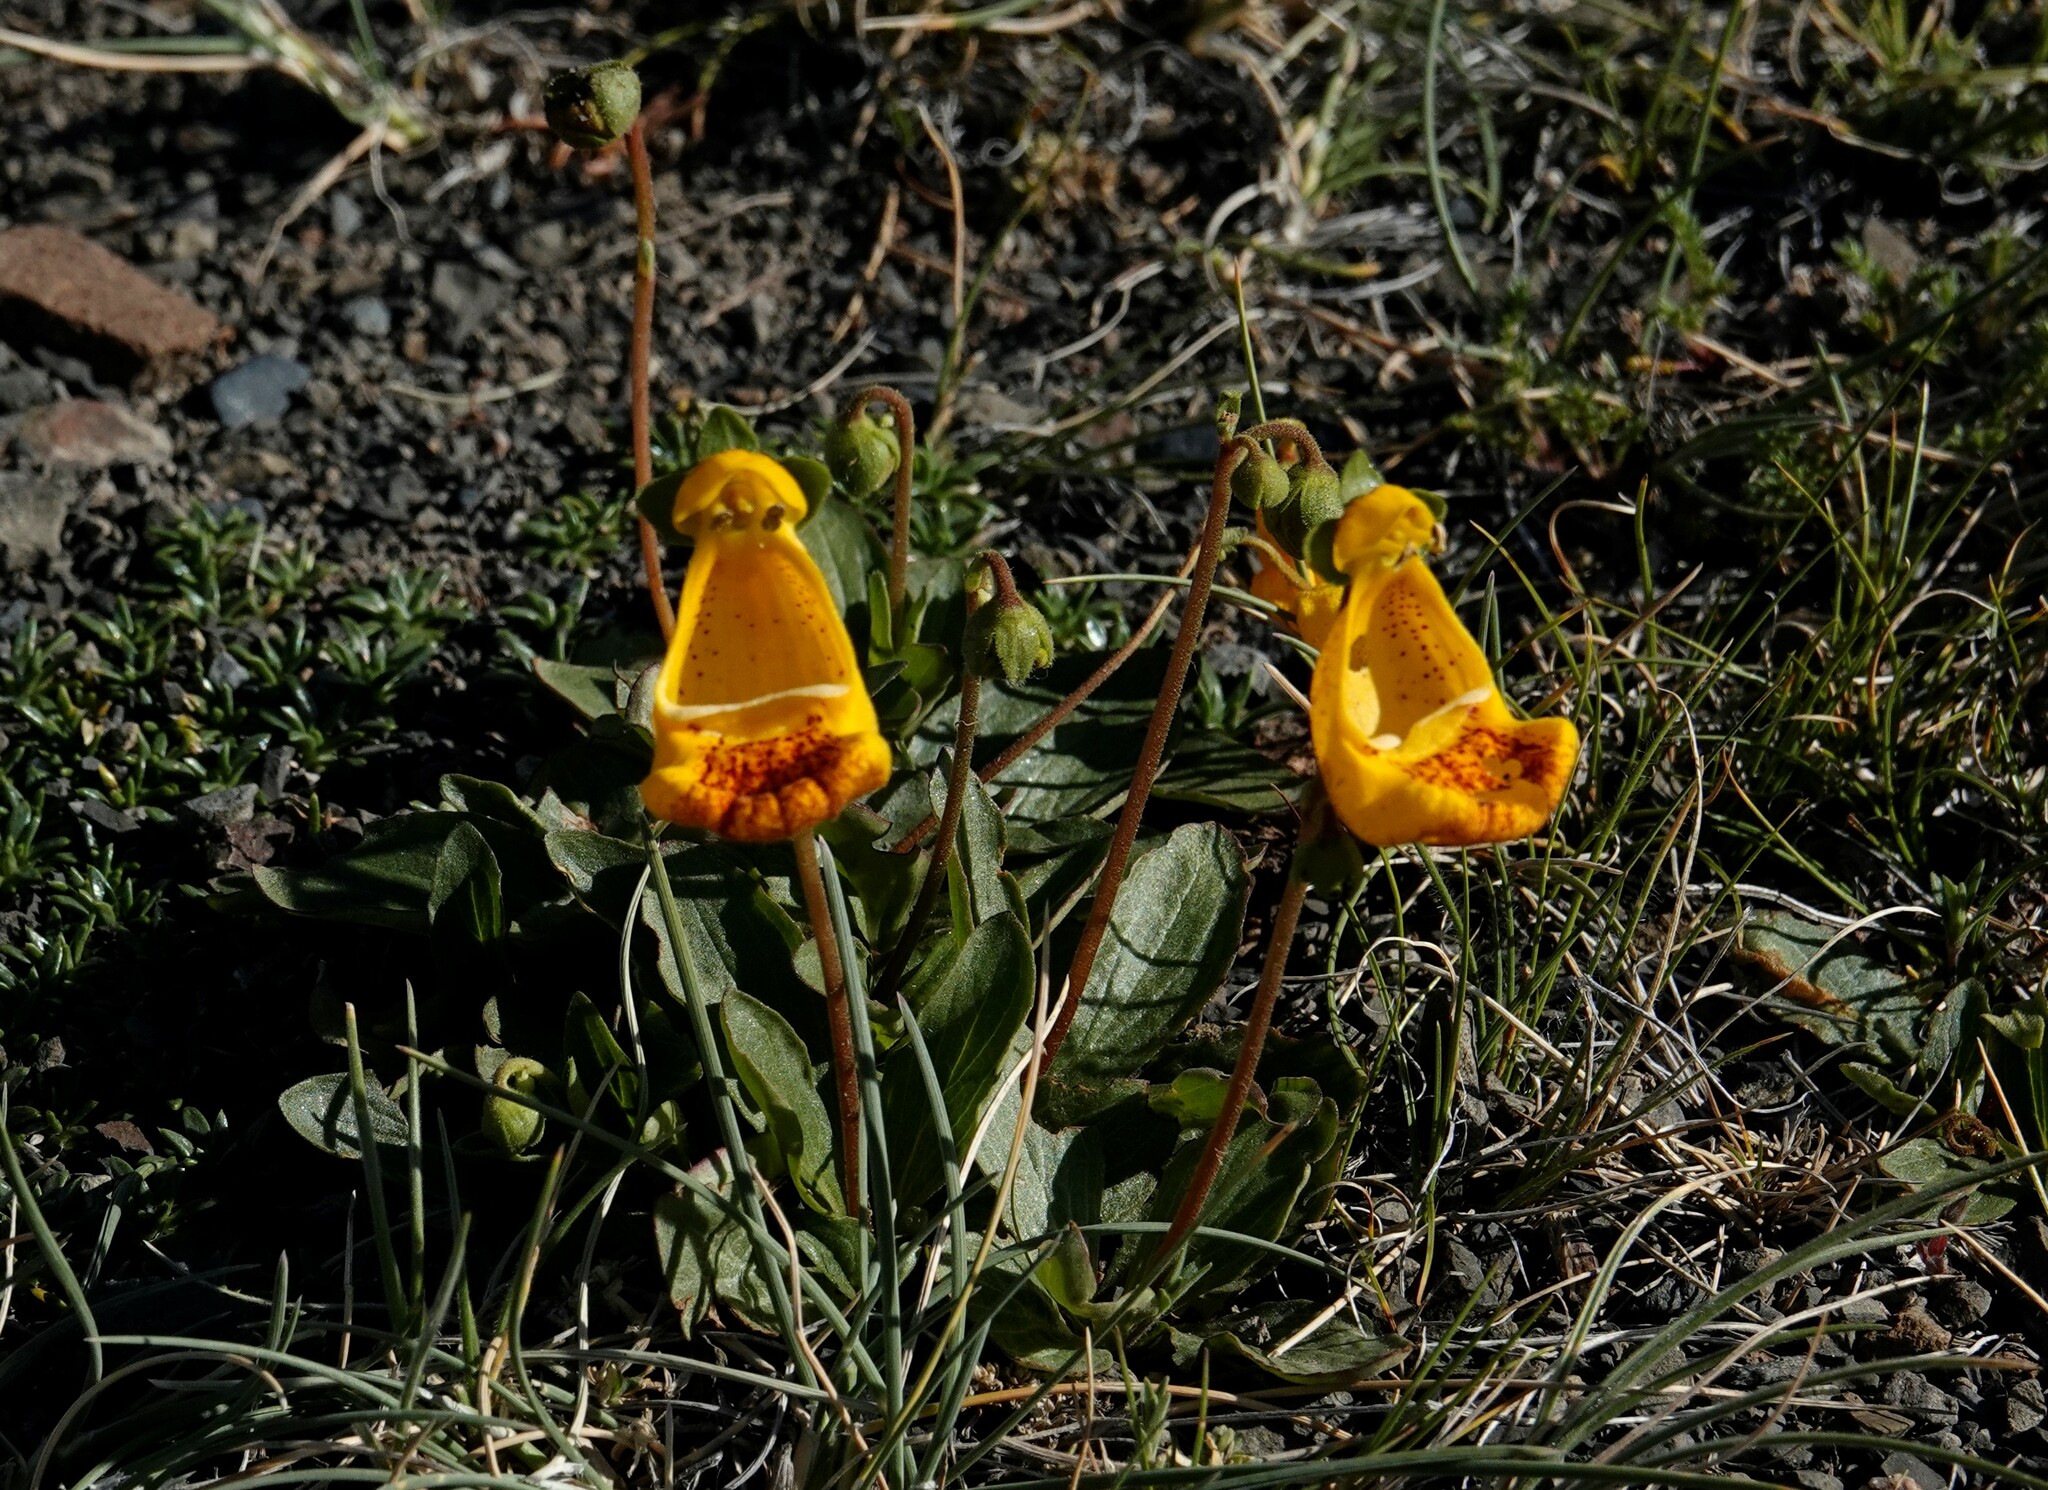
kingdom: Plantae
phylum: Tracheophyta
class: Magnoliopsida
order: Lamiales
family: Calceolariaceae
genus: Calceolaria
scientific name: Calceolaria
